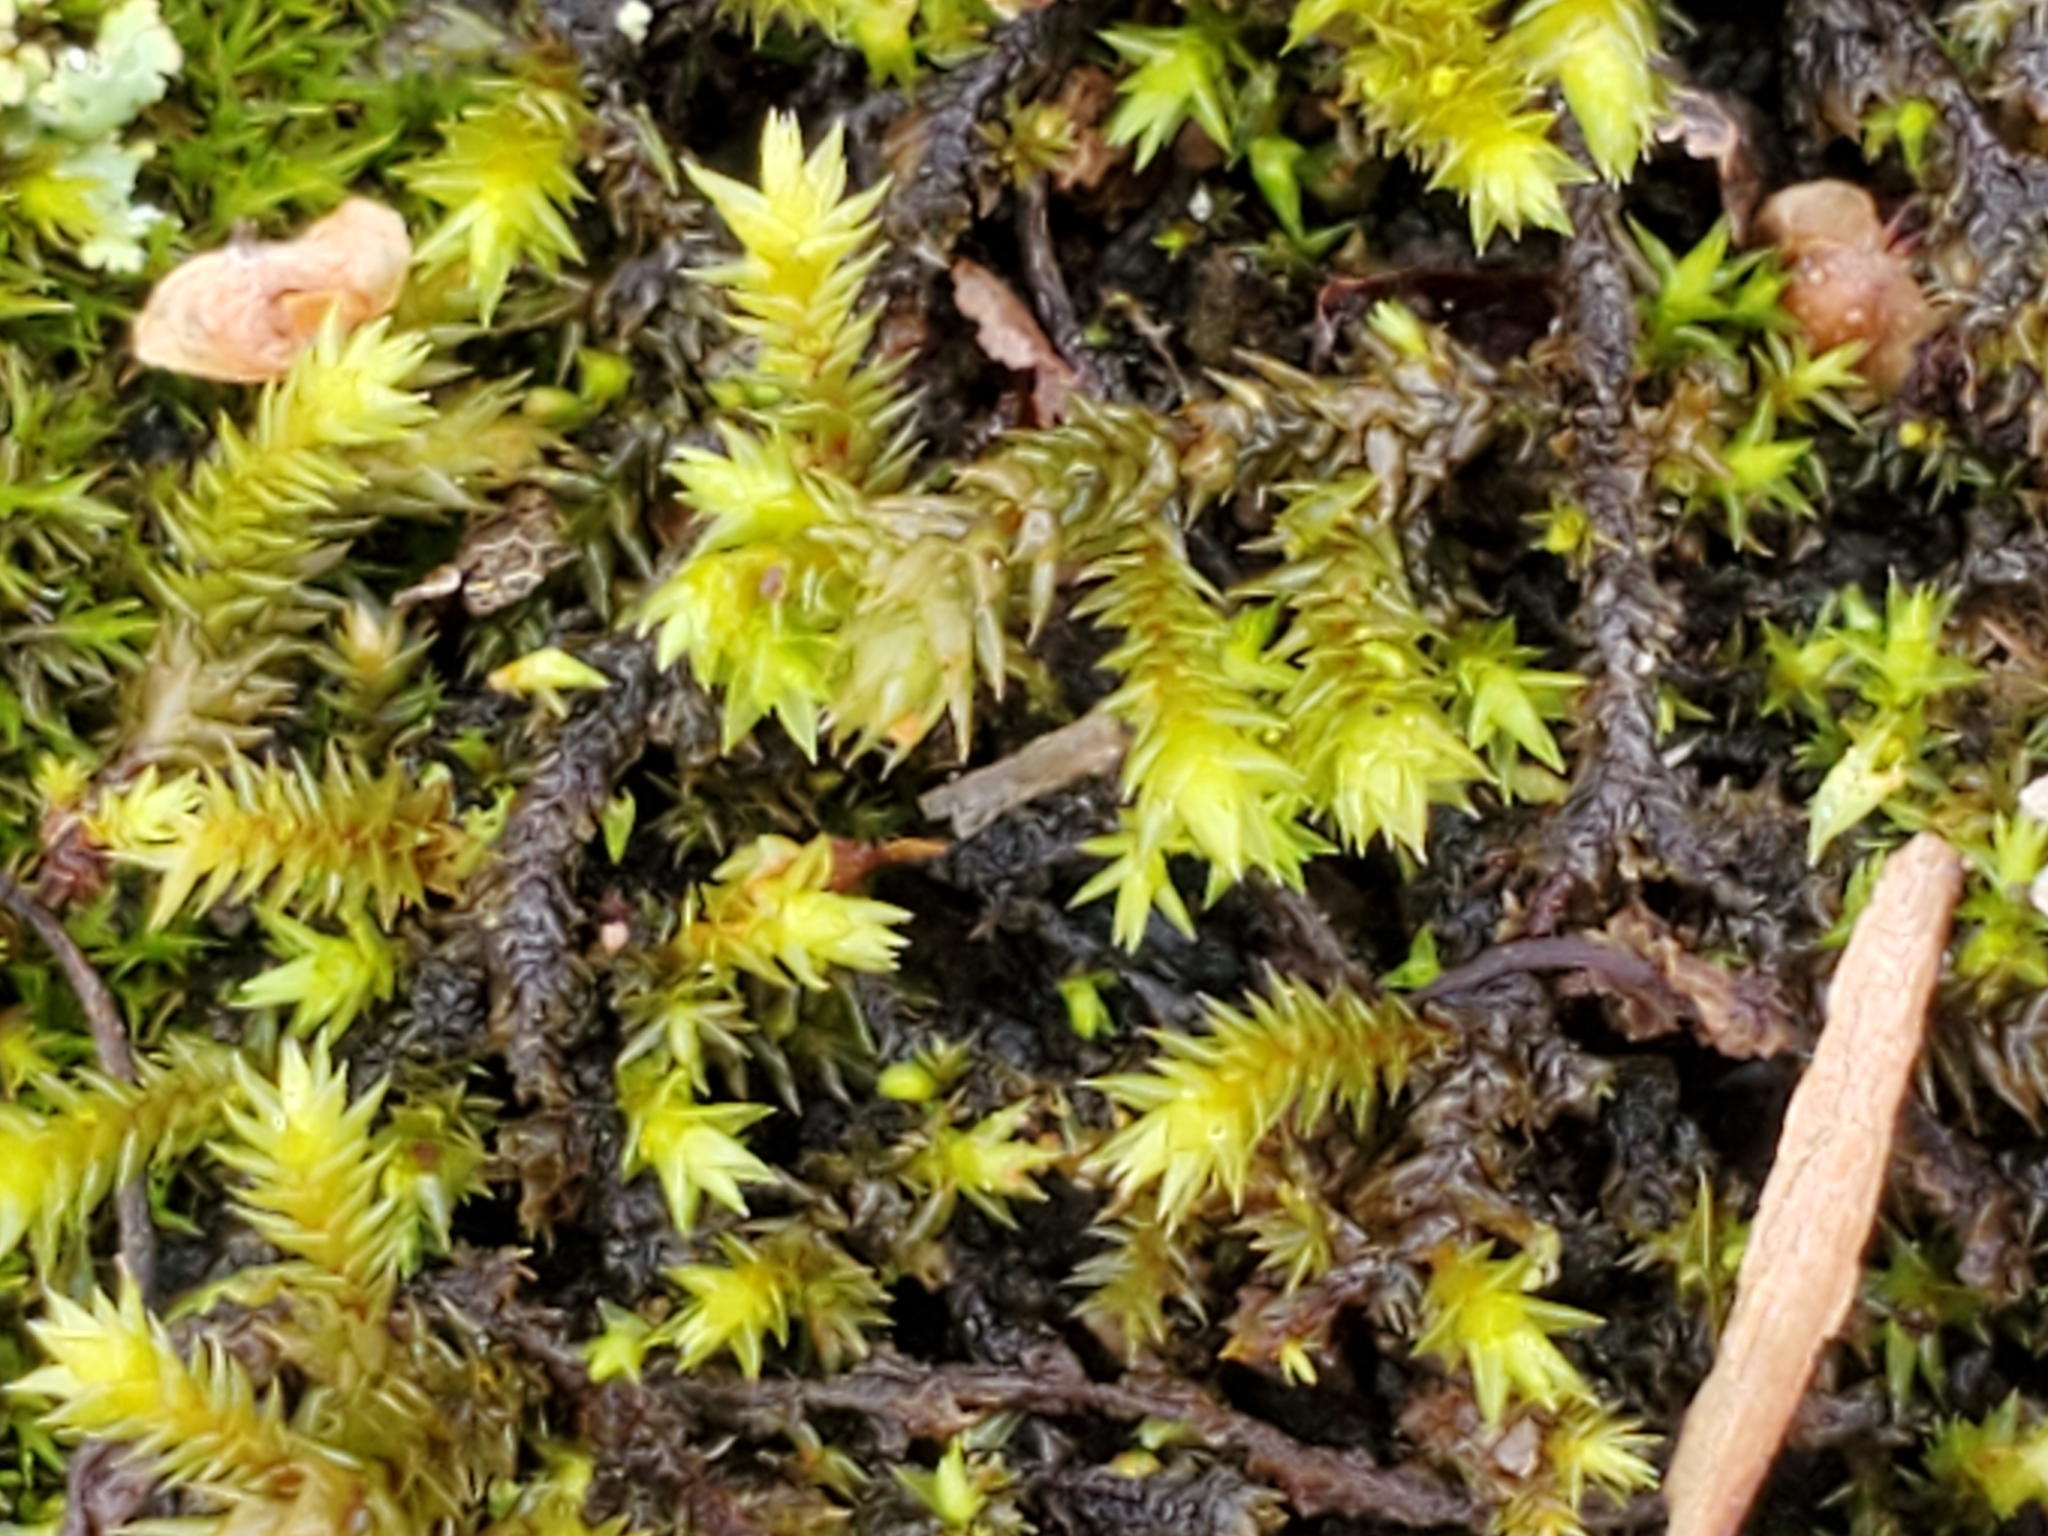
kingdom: Plantae
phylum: Bryophyta
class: Bryopsida
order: Hedwigiales
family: Hedwigiaceae
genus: Hedwigia
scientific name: Hedwigia ciliata
